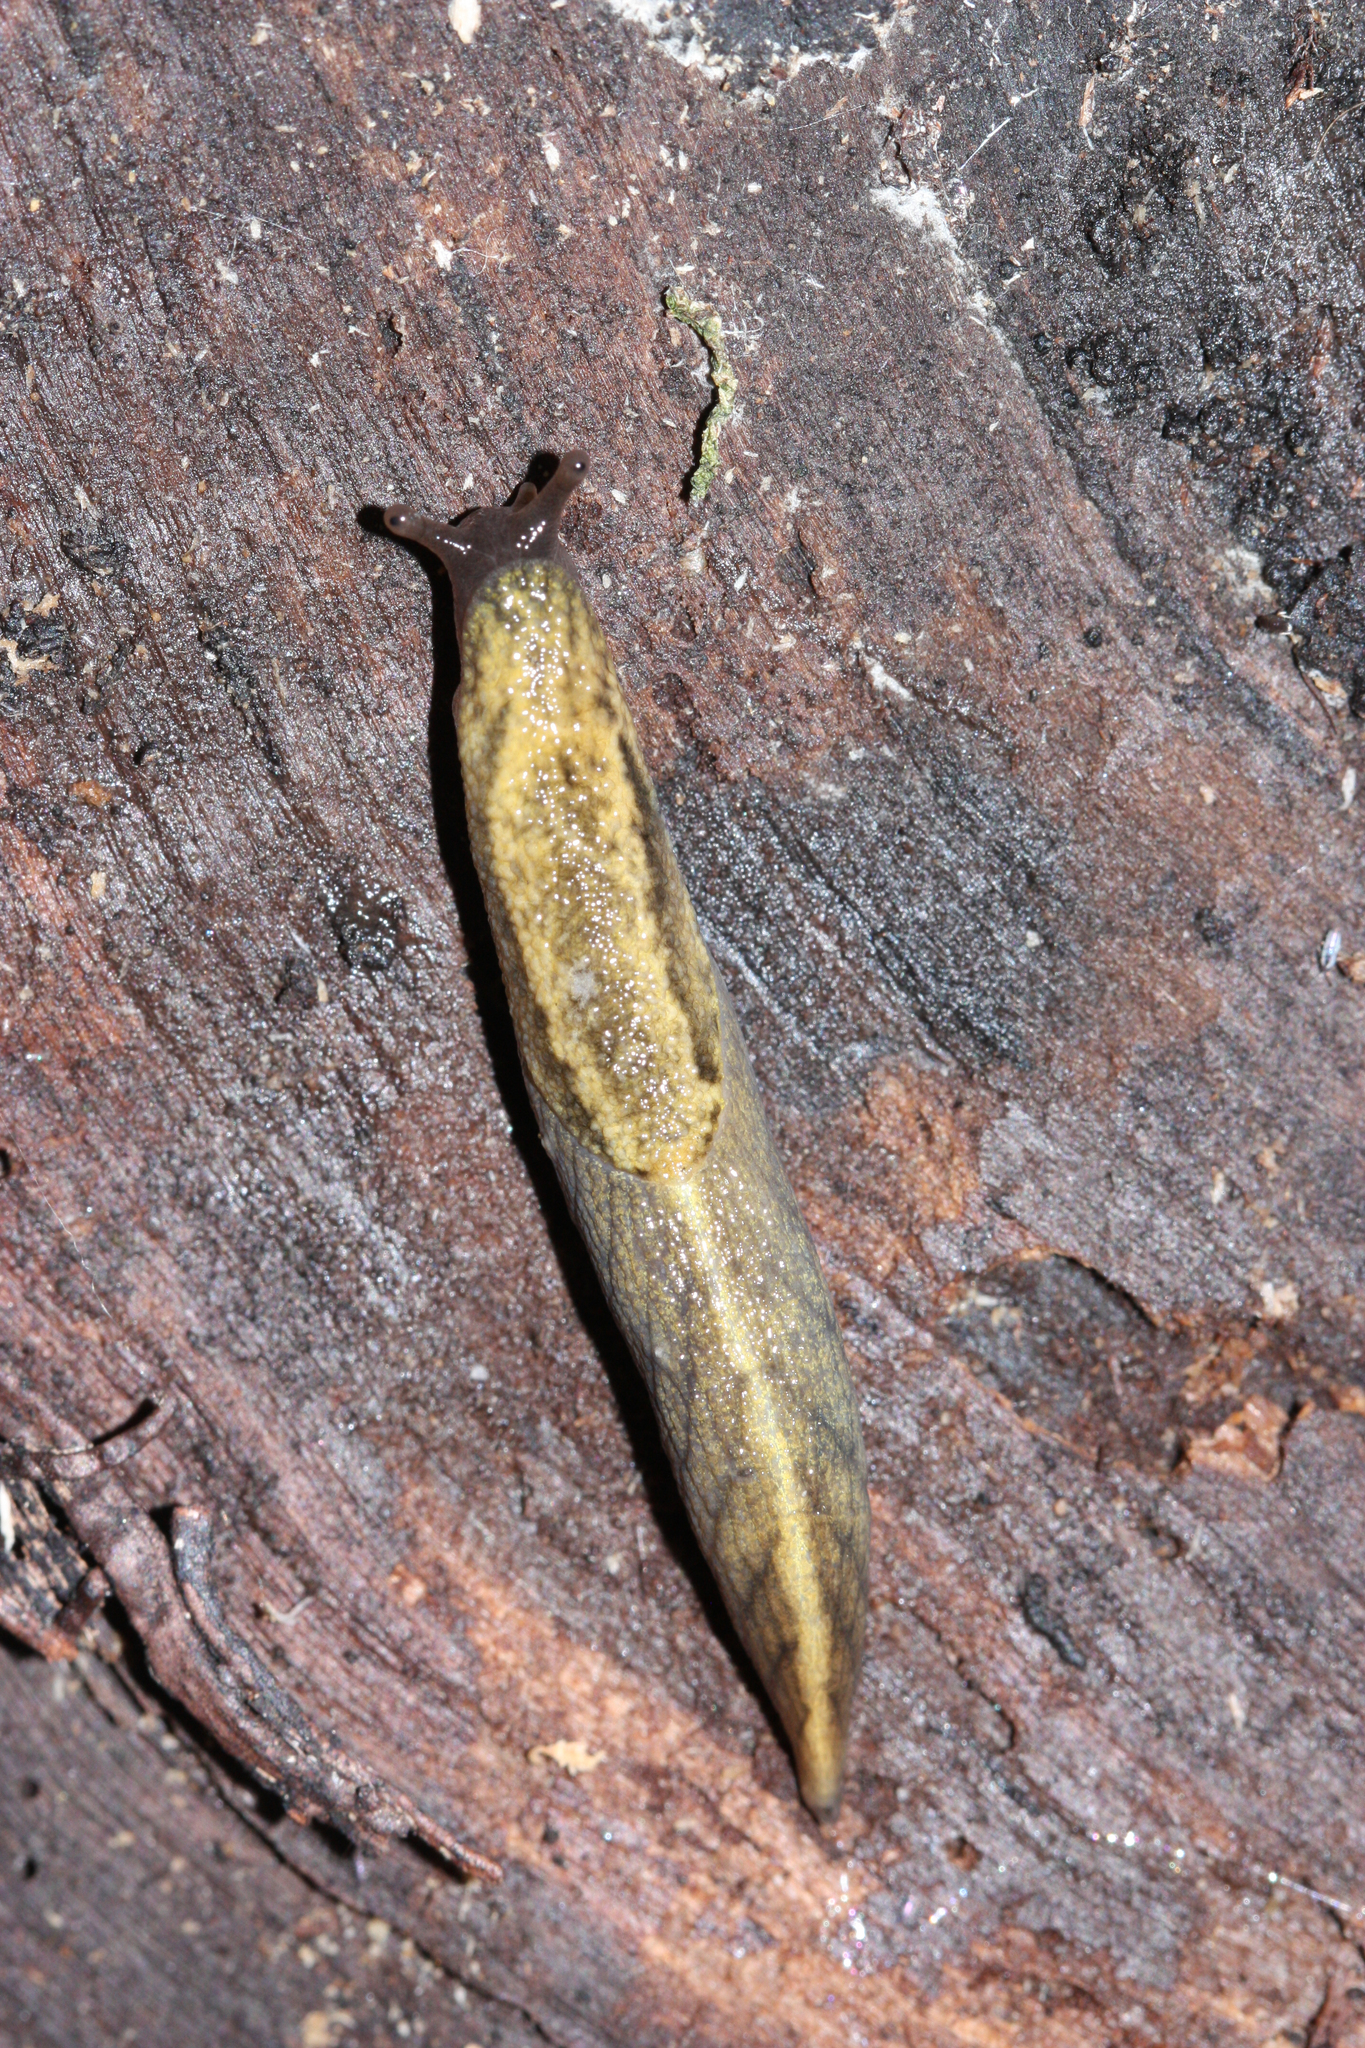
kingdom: Animalia
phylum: Mollusca
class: Gastropoda
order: Stylommatophora
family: Ariolimacidae
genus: Prophysaon
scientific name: Prophysaon andersonii
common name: Reticulate taildropper
